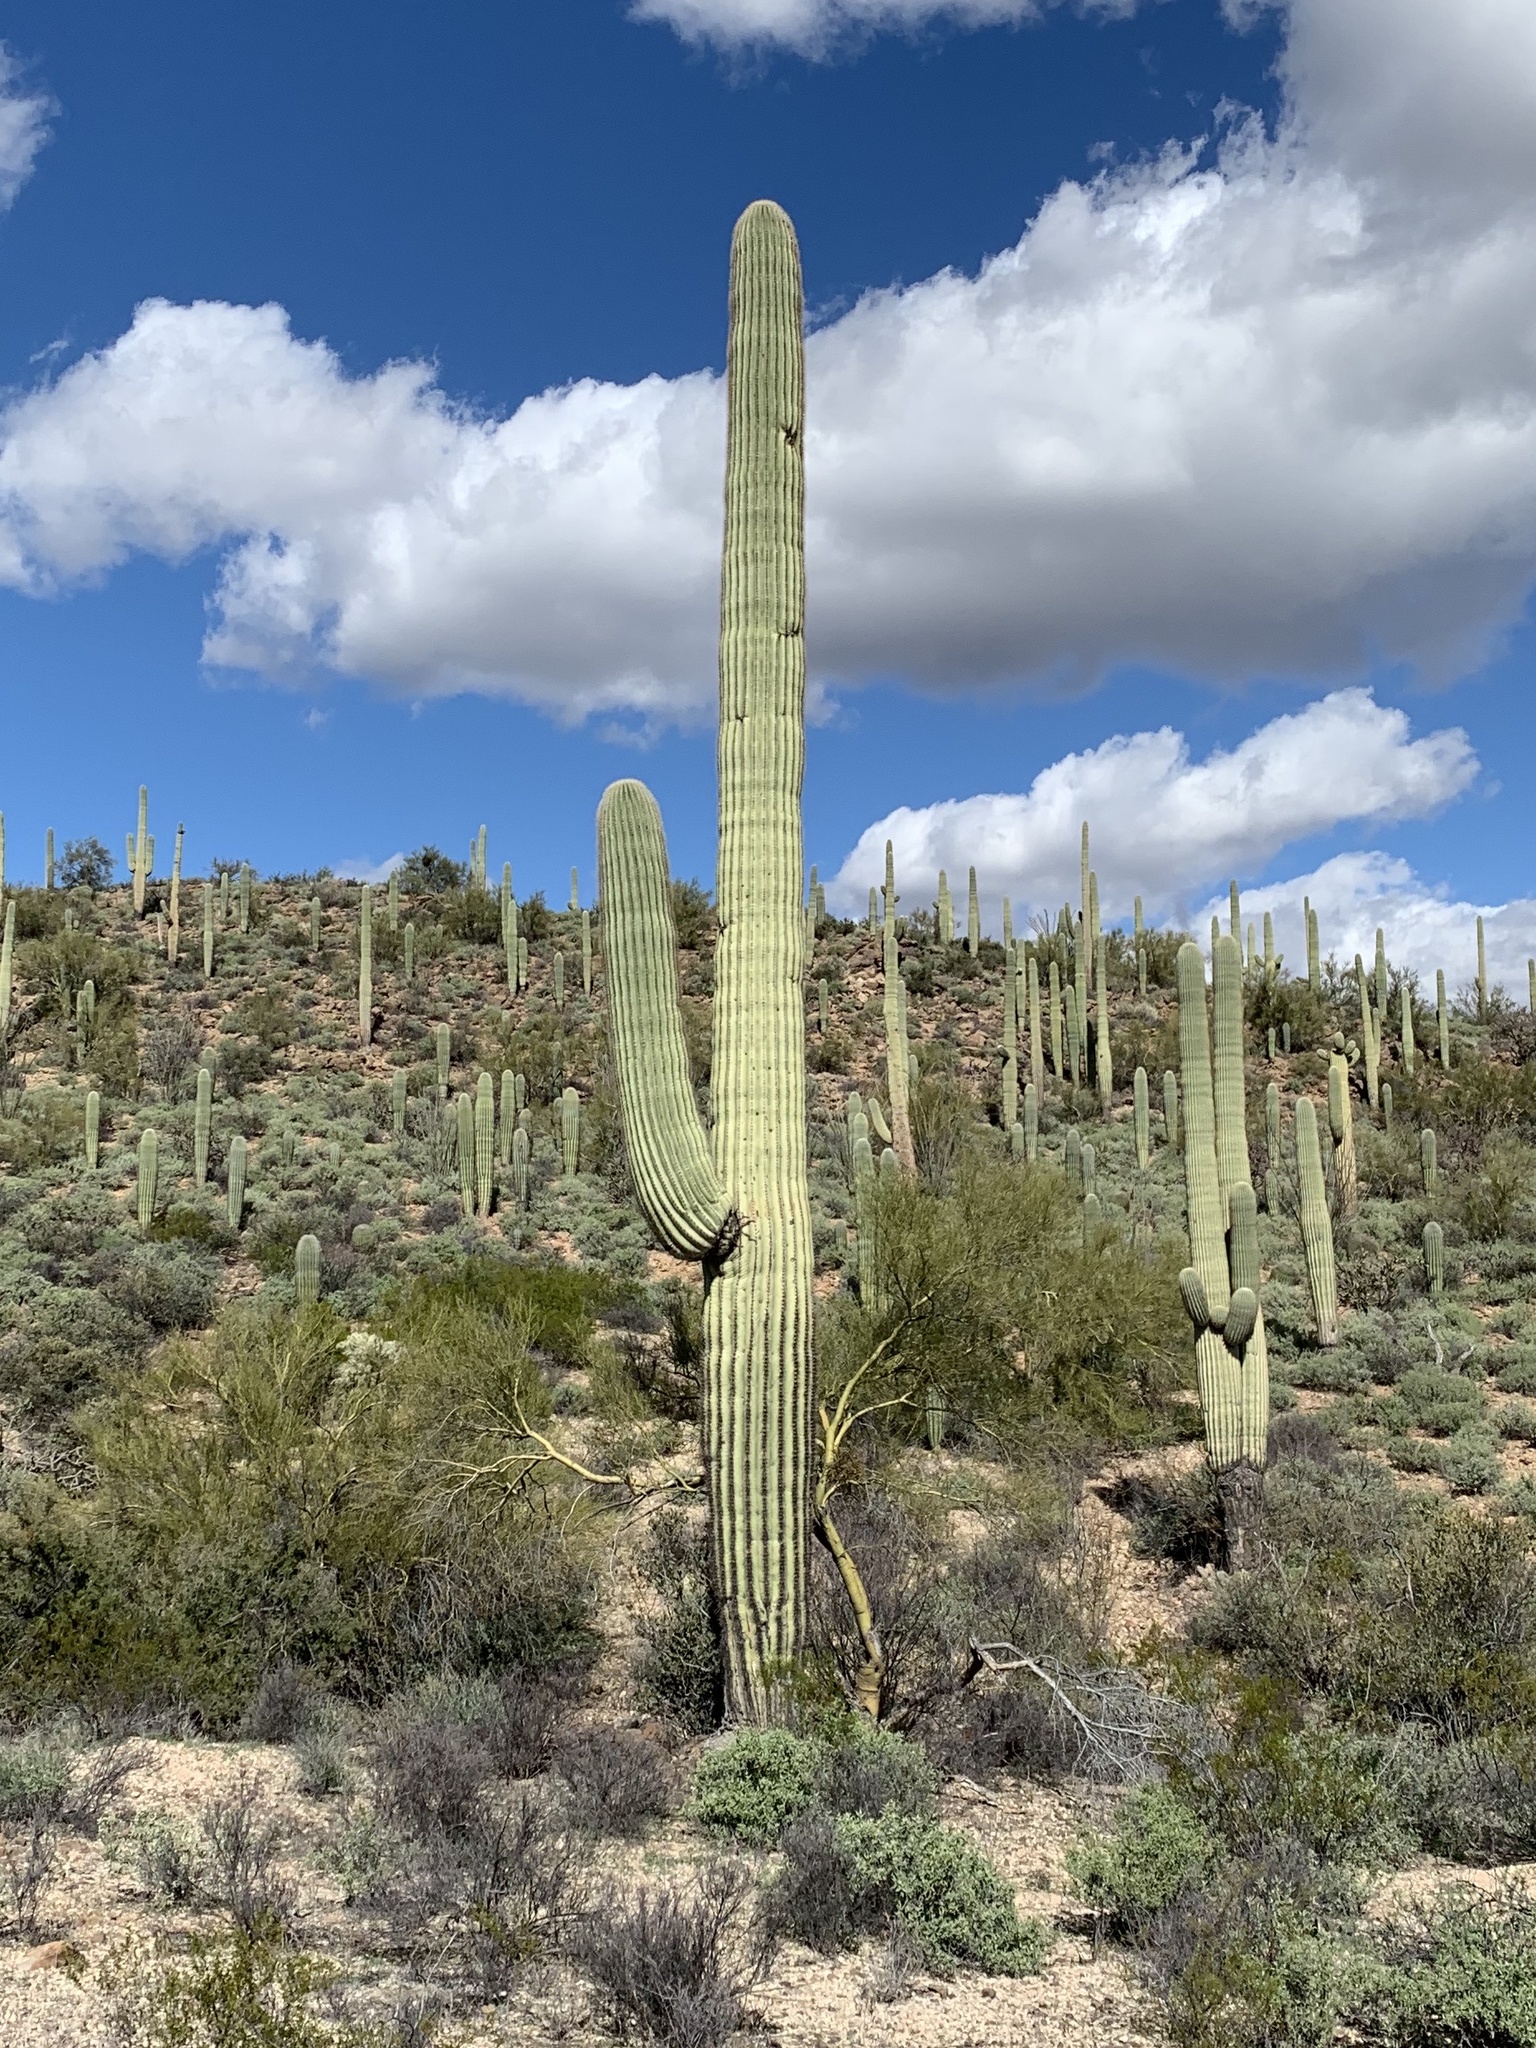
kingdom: Plantae
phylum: Tracheophyta
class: Magnoliopsida
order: Caryophyllales
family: Cactaceae
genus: Carnegiea
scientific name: Carnegiea gigantea
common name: Saguaro
